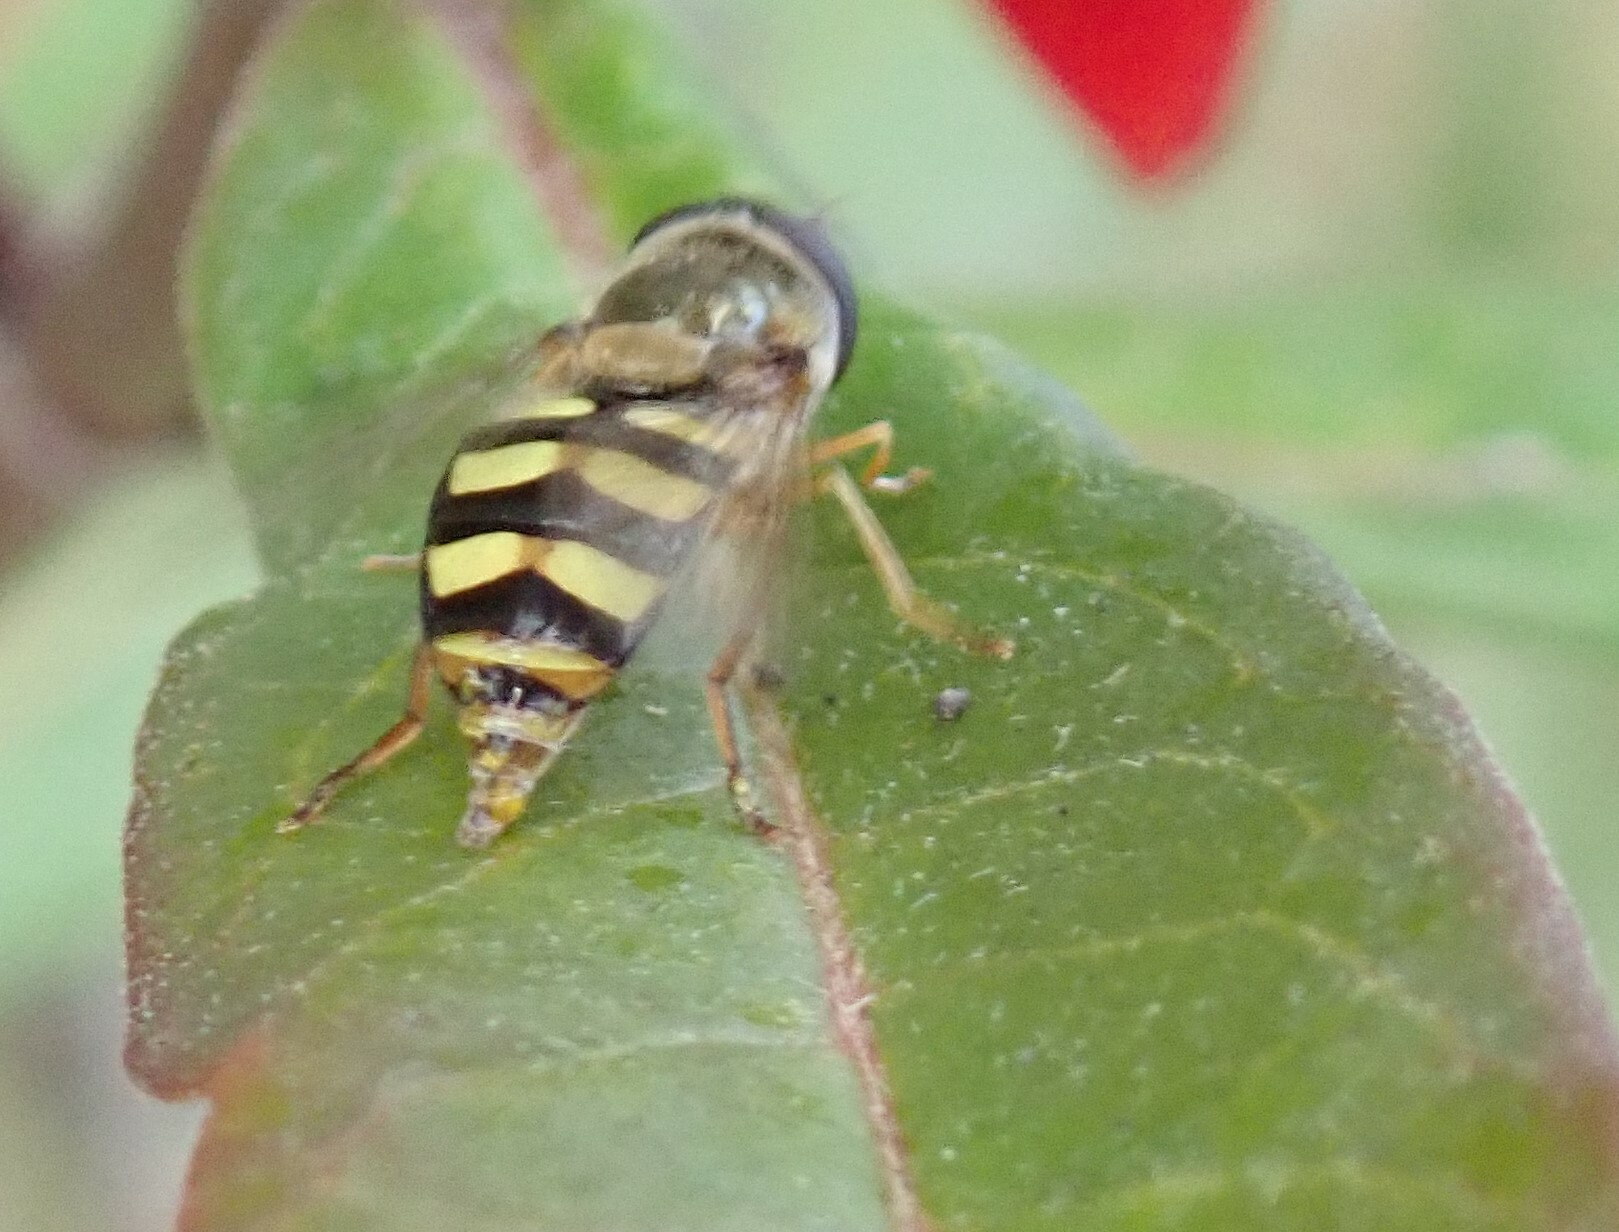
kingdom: Animalia
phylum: Arthropoda
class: Insecta
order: Diptera
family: Syrphidae
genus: Eupeodes
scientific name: Eupeodes fumipennis
